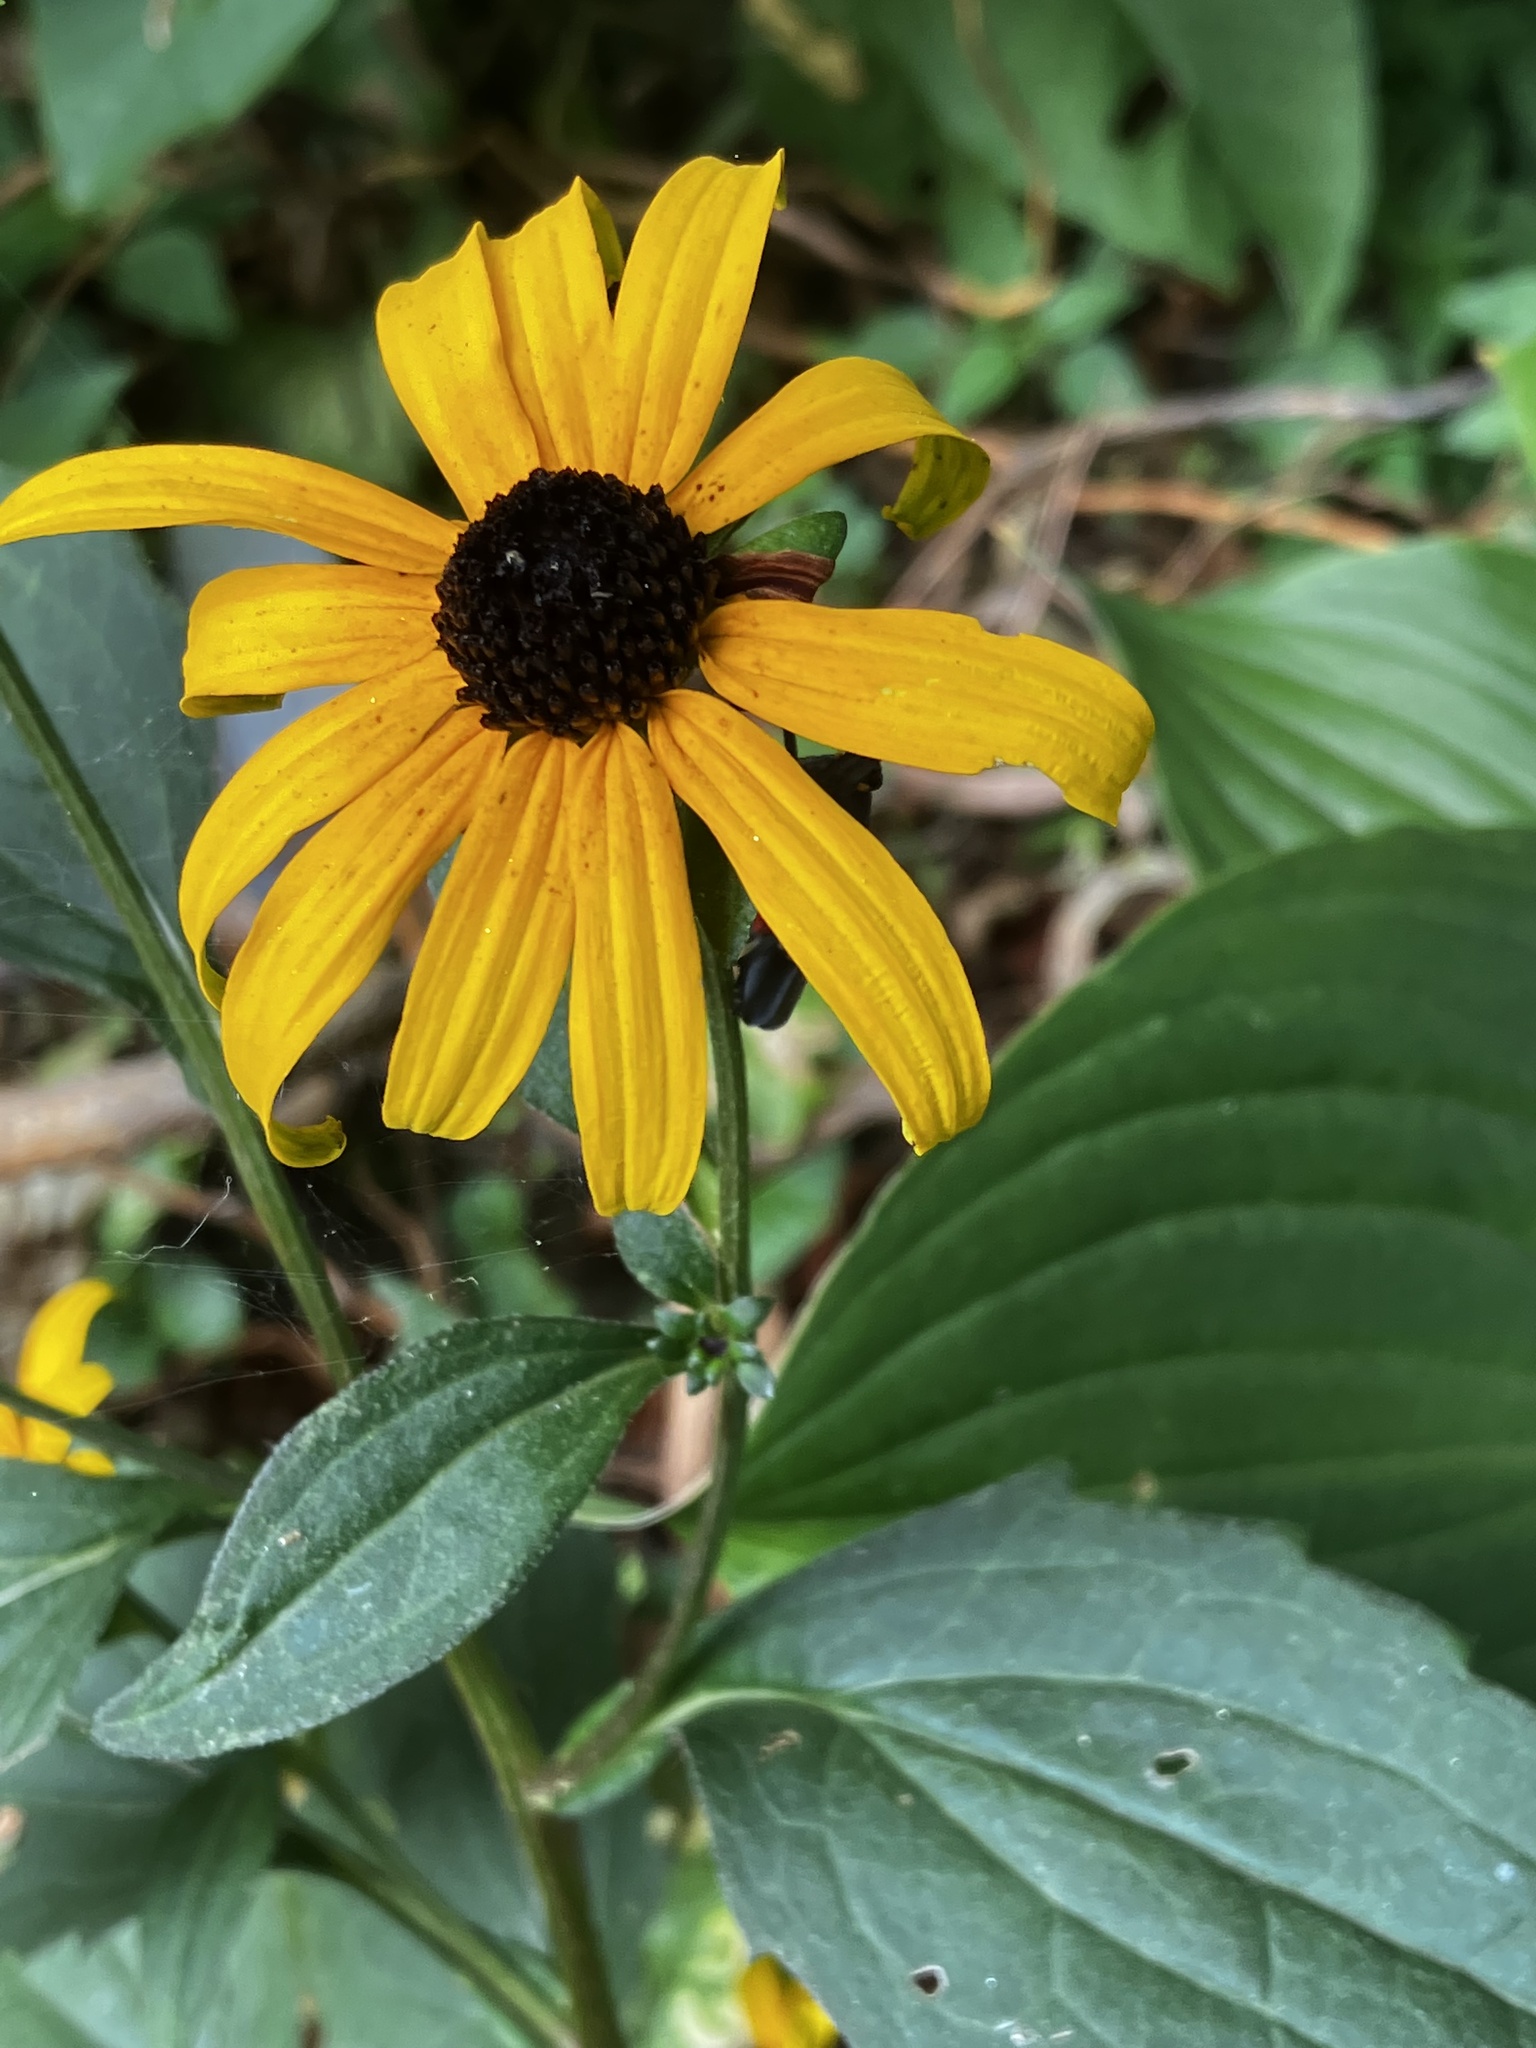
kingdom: Plantae
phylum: Tracheophyta
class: Magnoliopsida
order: Asterales
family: Asteraceae
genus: Rudbeckia
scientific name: Rudbeckia fulgida
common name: Perennial coneflower
